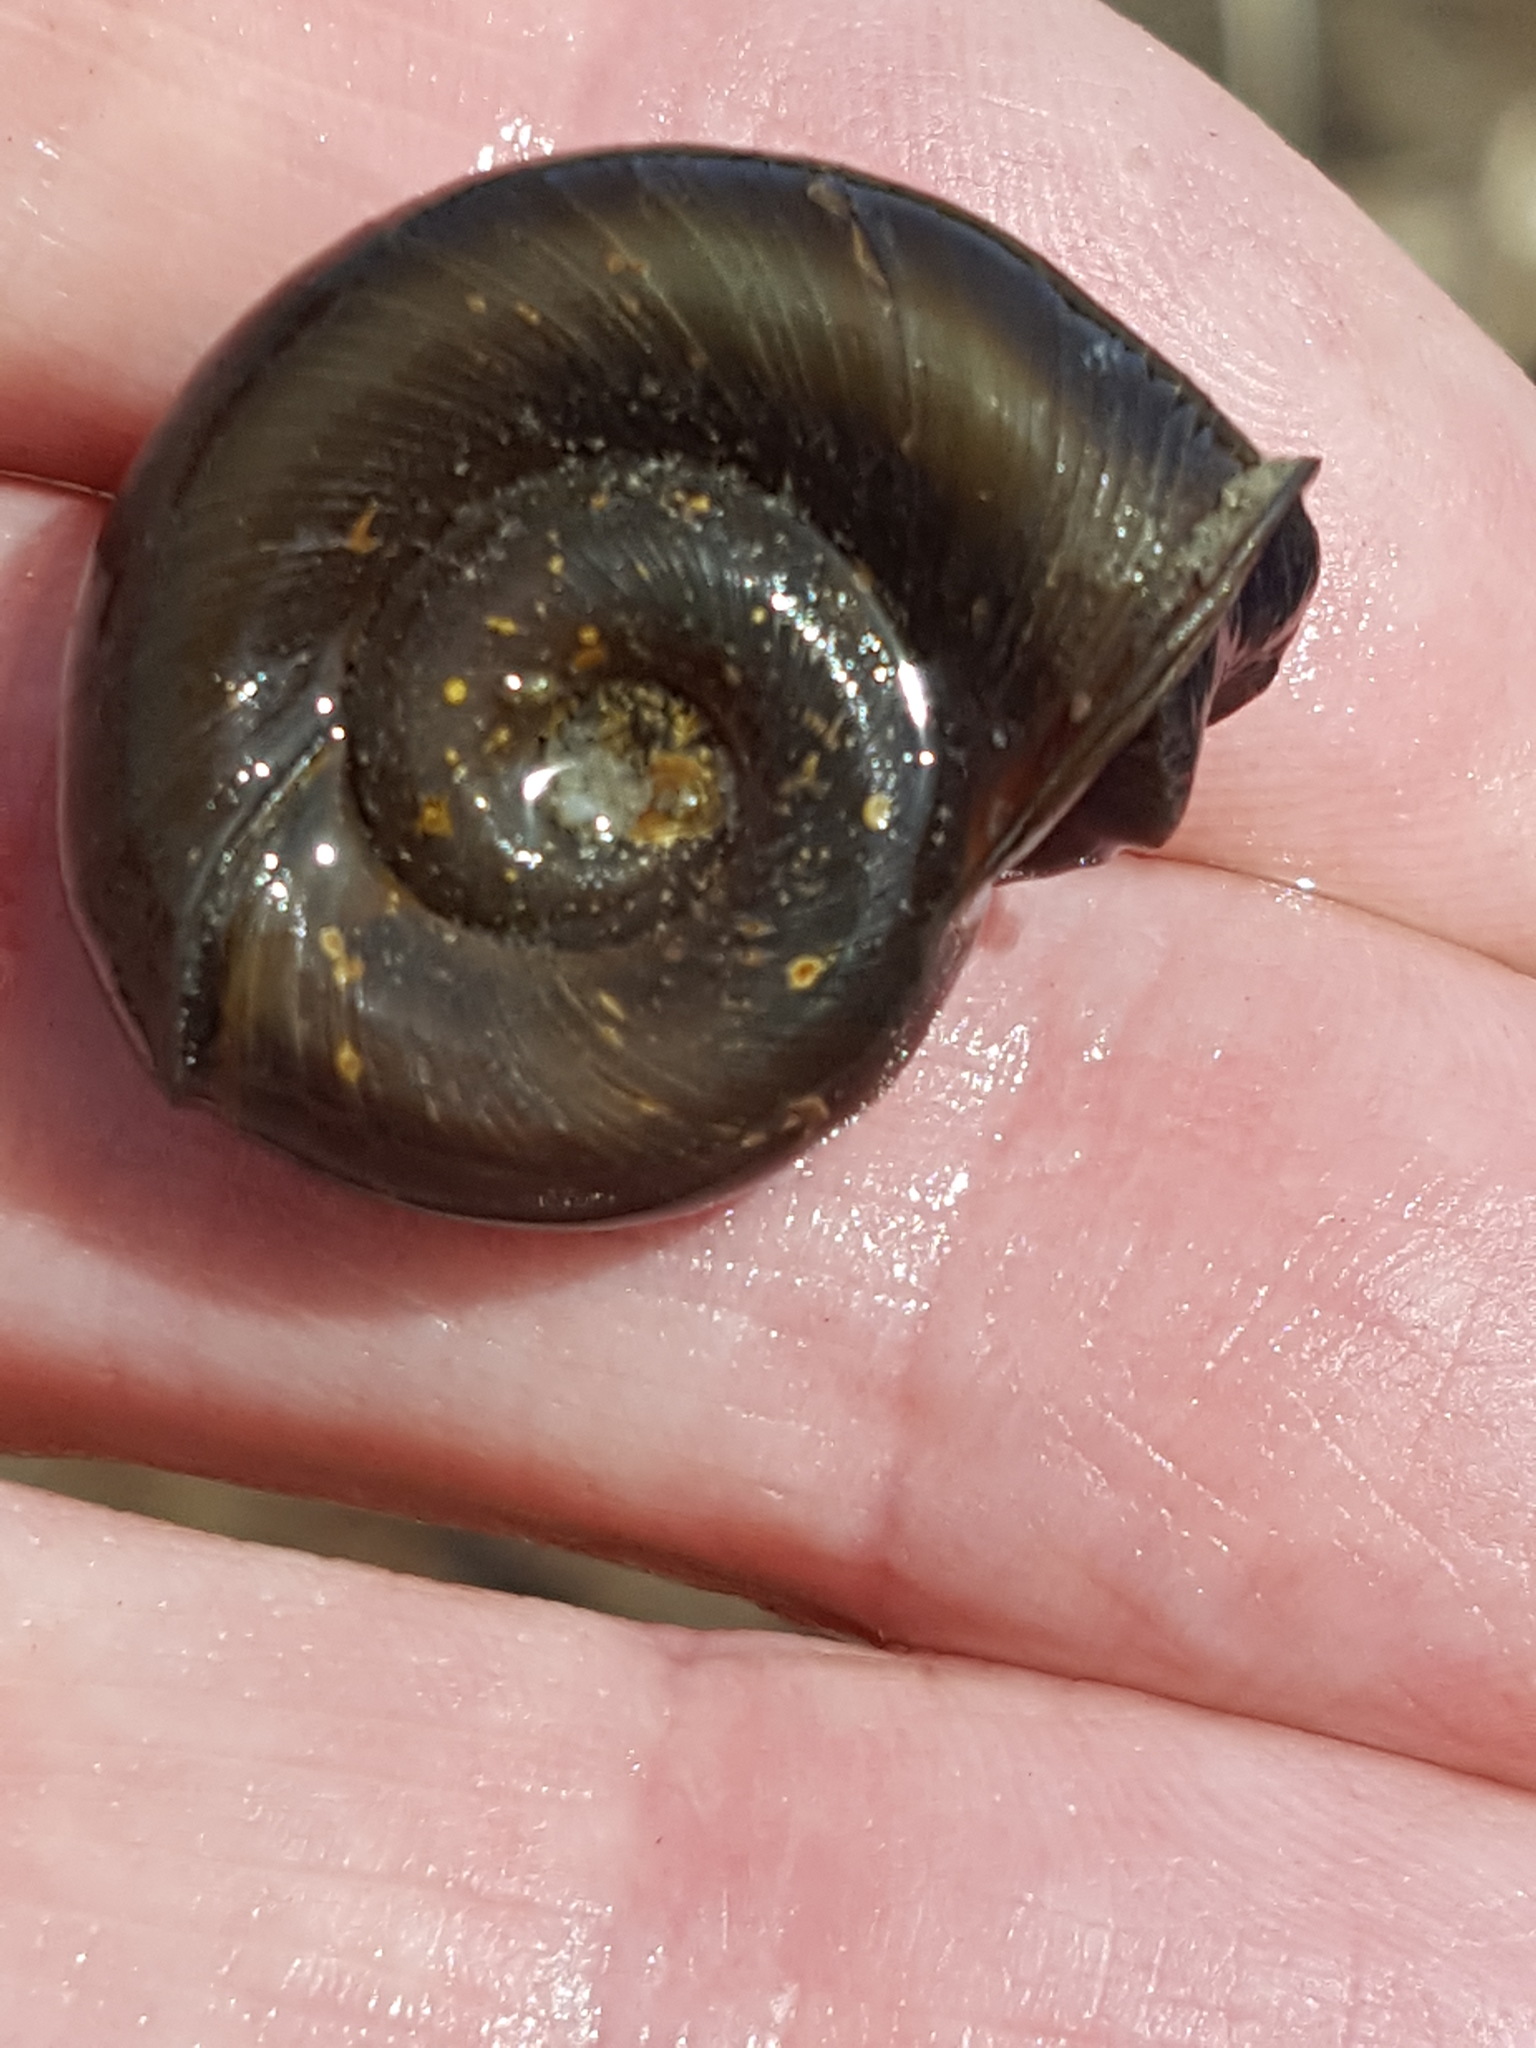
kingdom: Animalia
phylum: Mollusca
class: Gastropoda
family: Planorbidae
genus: Planorbella
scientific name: Planorbella trivolvis
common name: Marsh rams-horn
